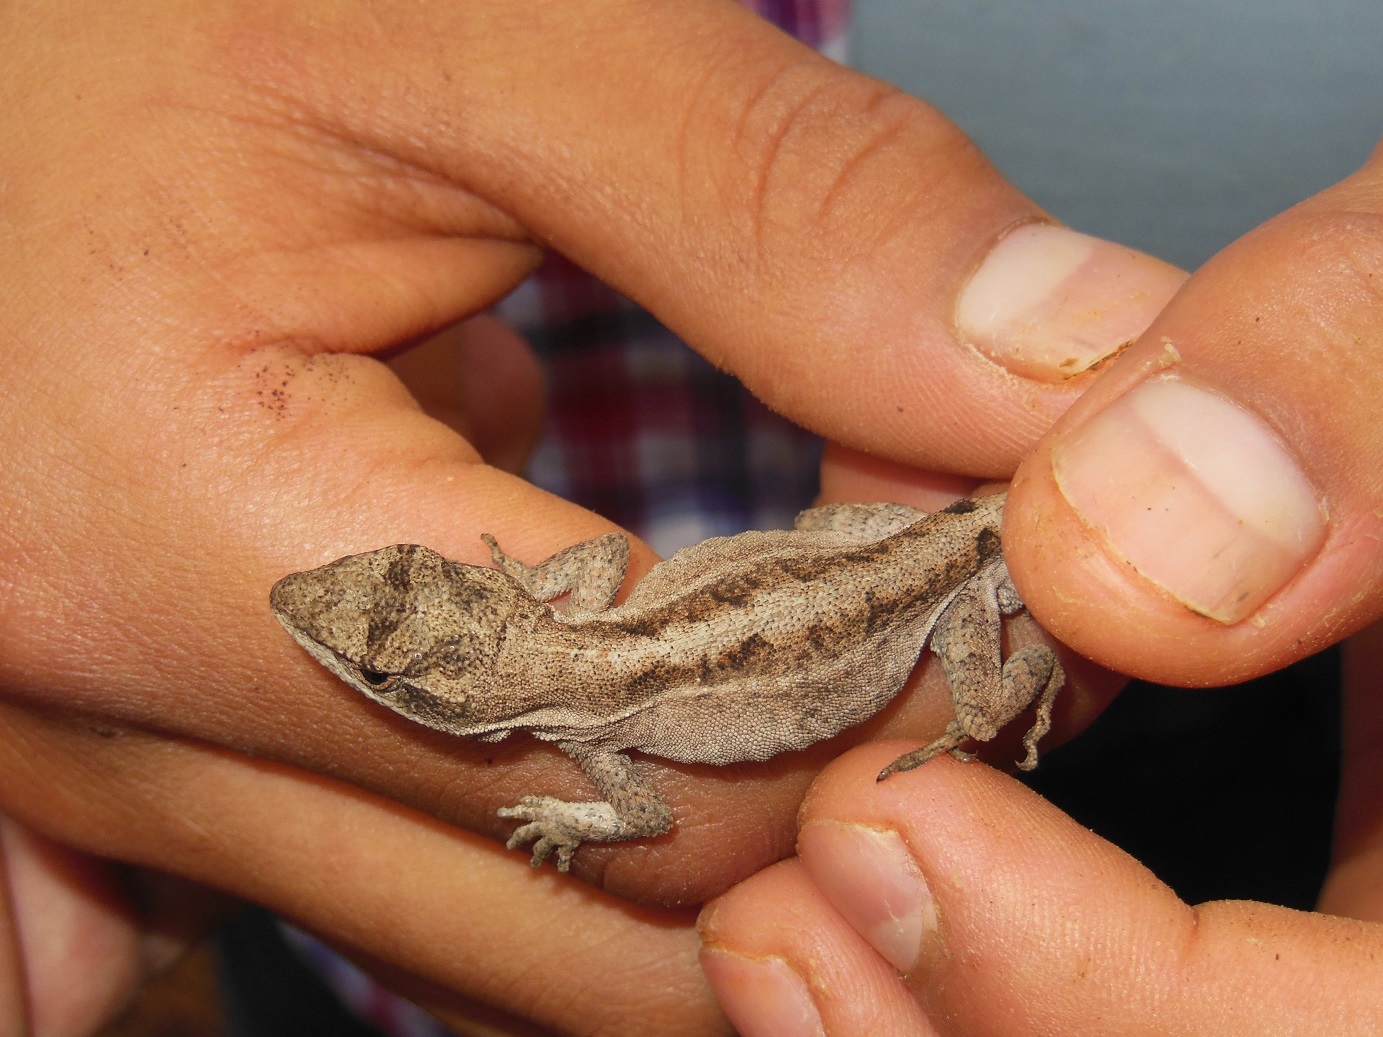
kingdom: Animalia
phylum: Chordata
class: Squamata
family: Dactyloidae
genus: Anolis
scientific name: Anolis anisolepis
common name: Chiapas ornate anole
